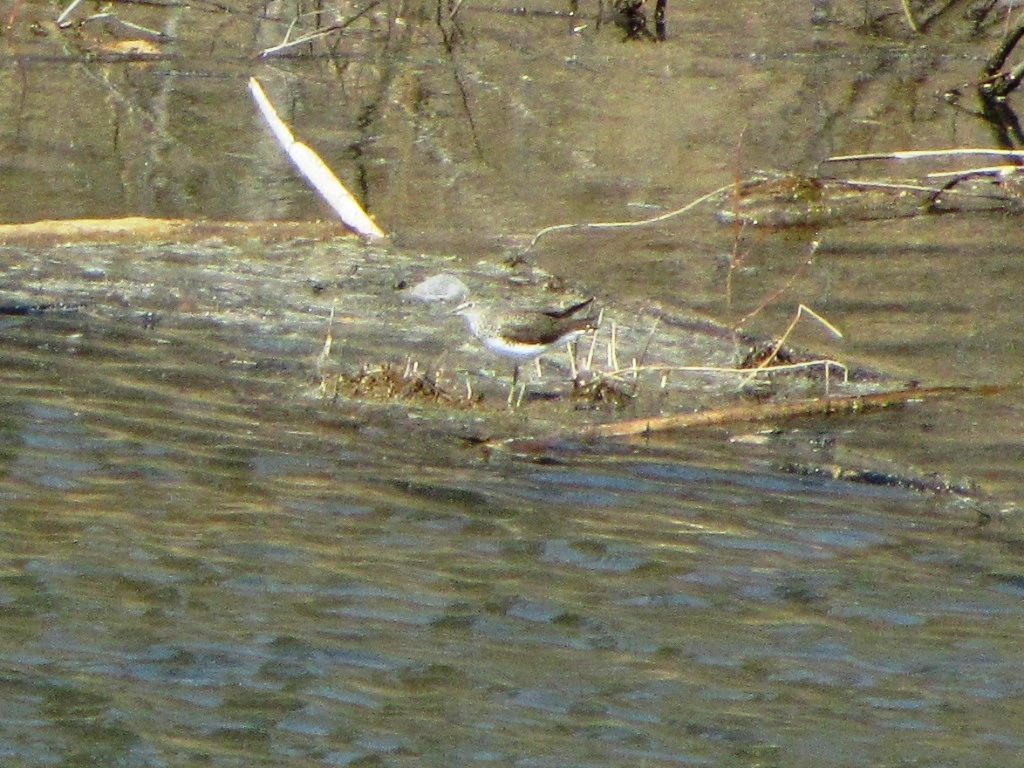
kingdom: Animalia
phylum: Chordata
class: Aves
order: Charadriiformes
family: Scolopacidae
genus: Tringa
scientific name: Tringa ochropus
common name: Green sandpiper
